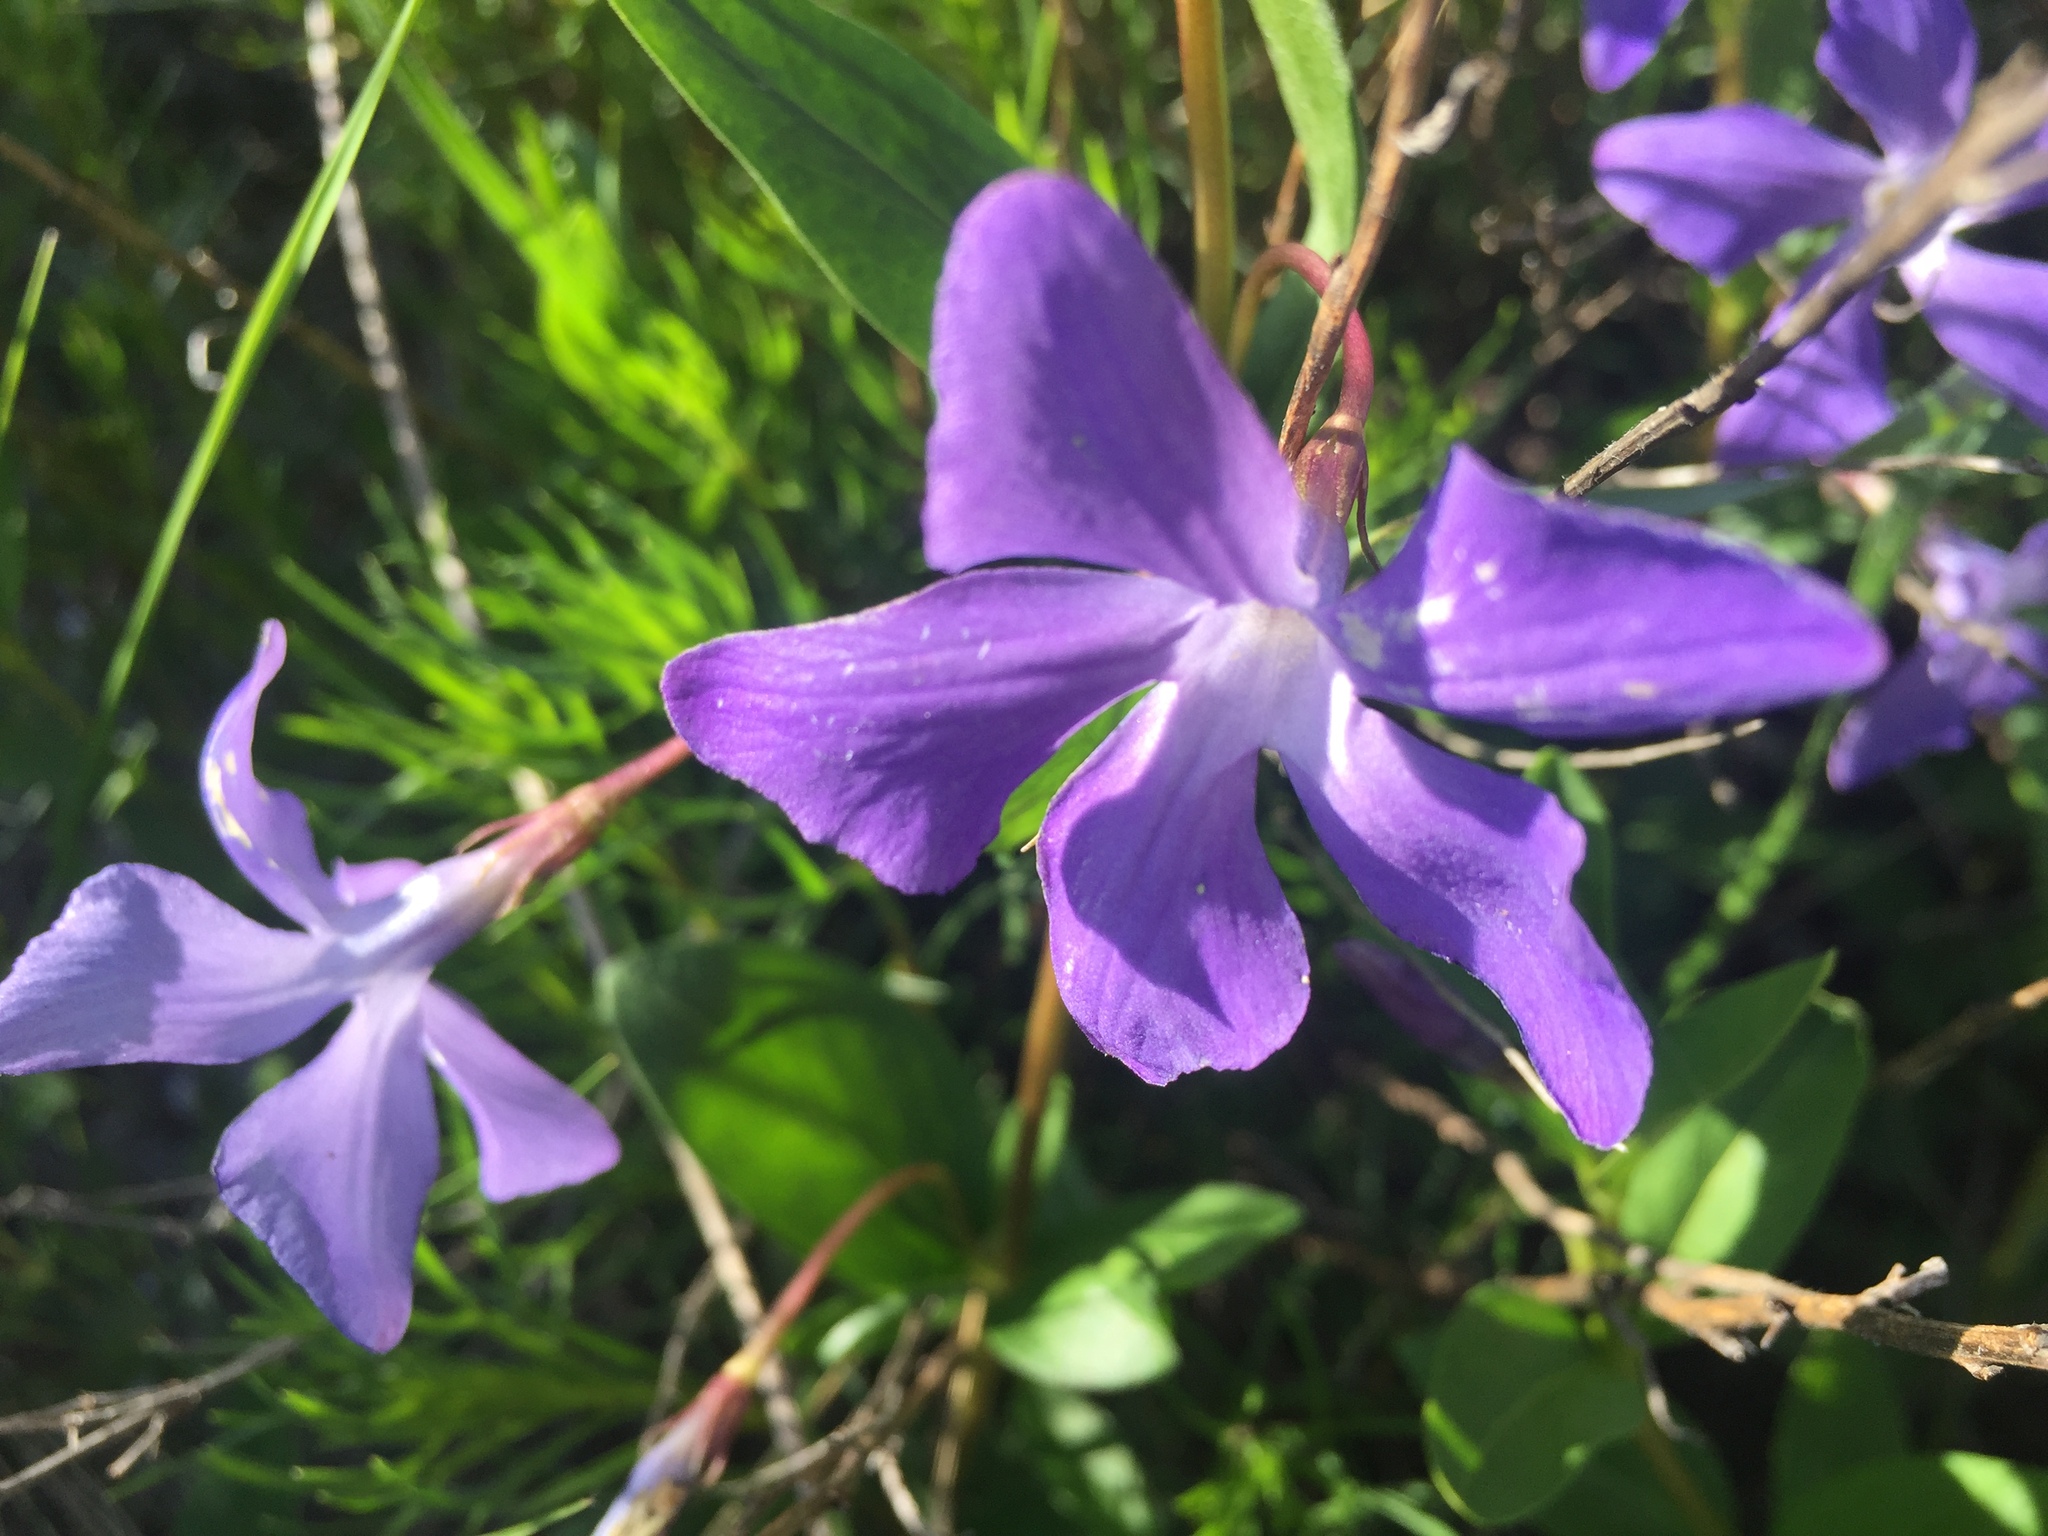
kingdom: Plantae
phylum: Tracheophyta
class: Magnoliopsida
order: Gentianales
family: Apocynaceae
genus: Vinca
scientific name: Vinca herbacea
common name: Herbaceous periwinkle
